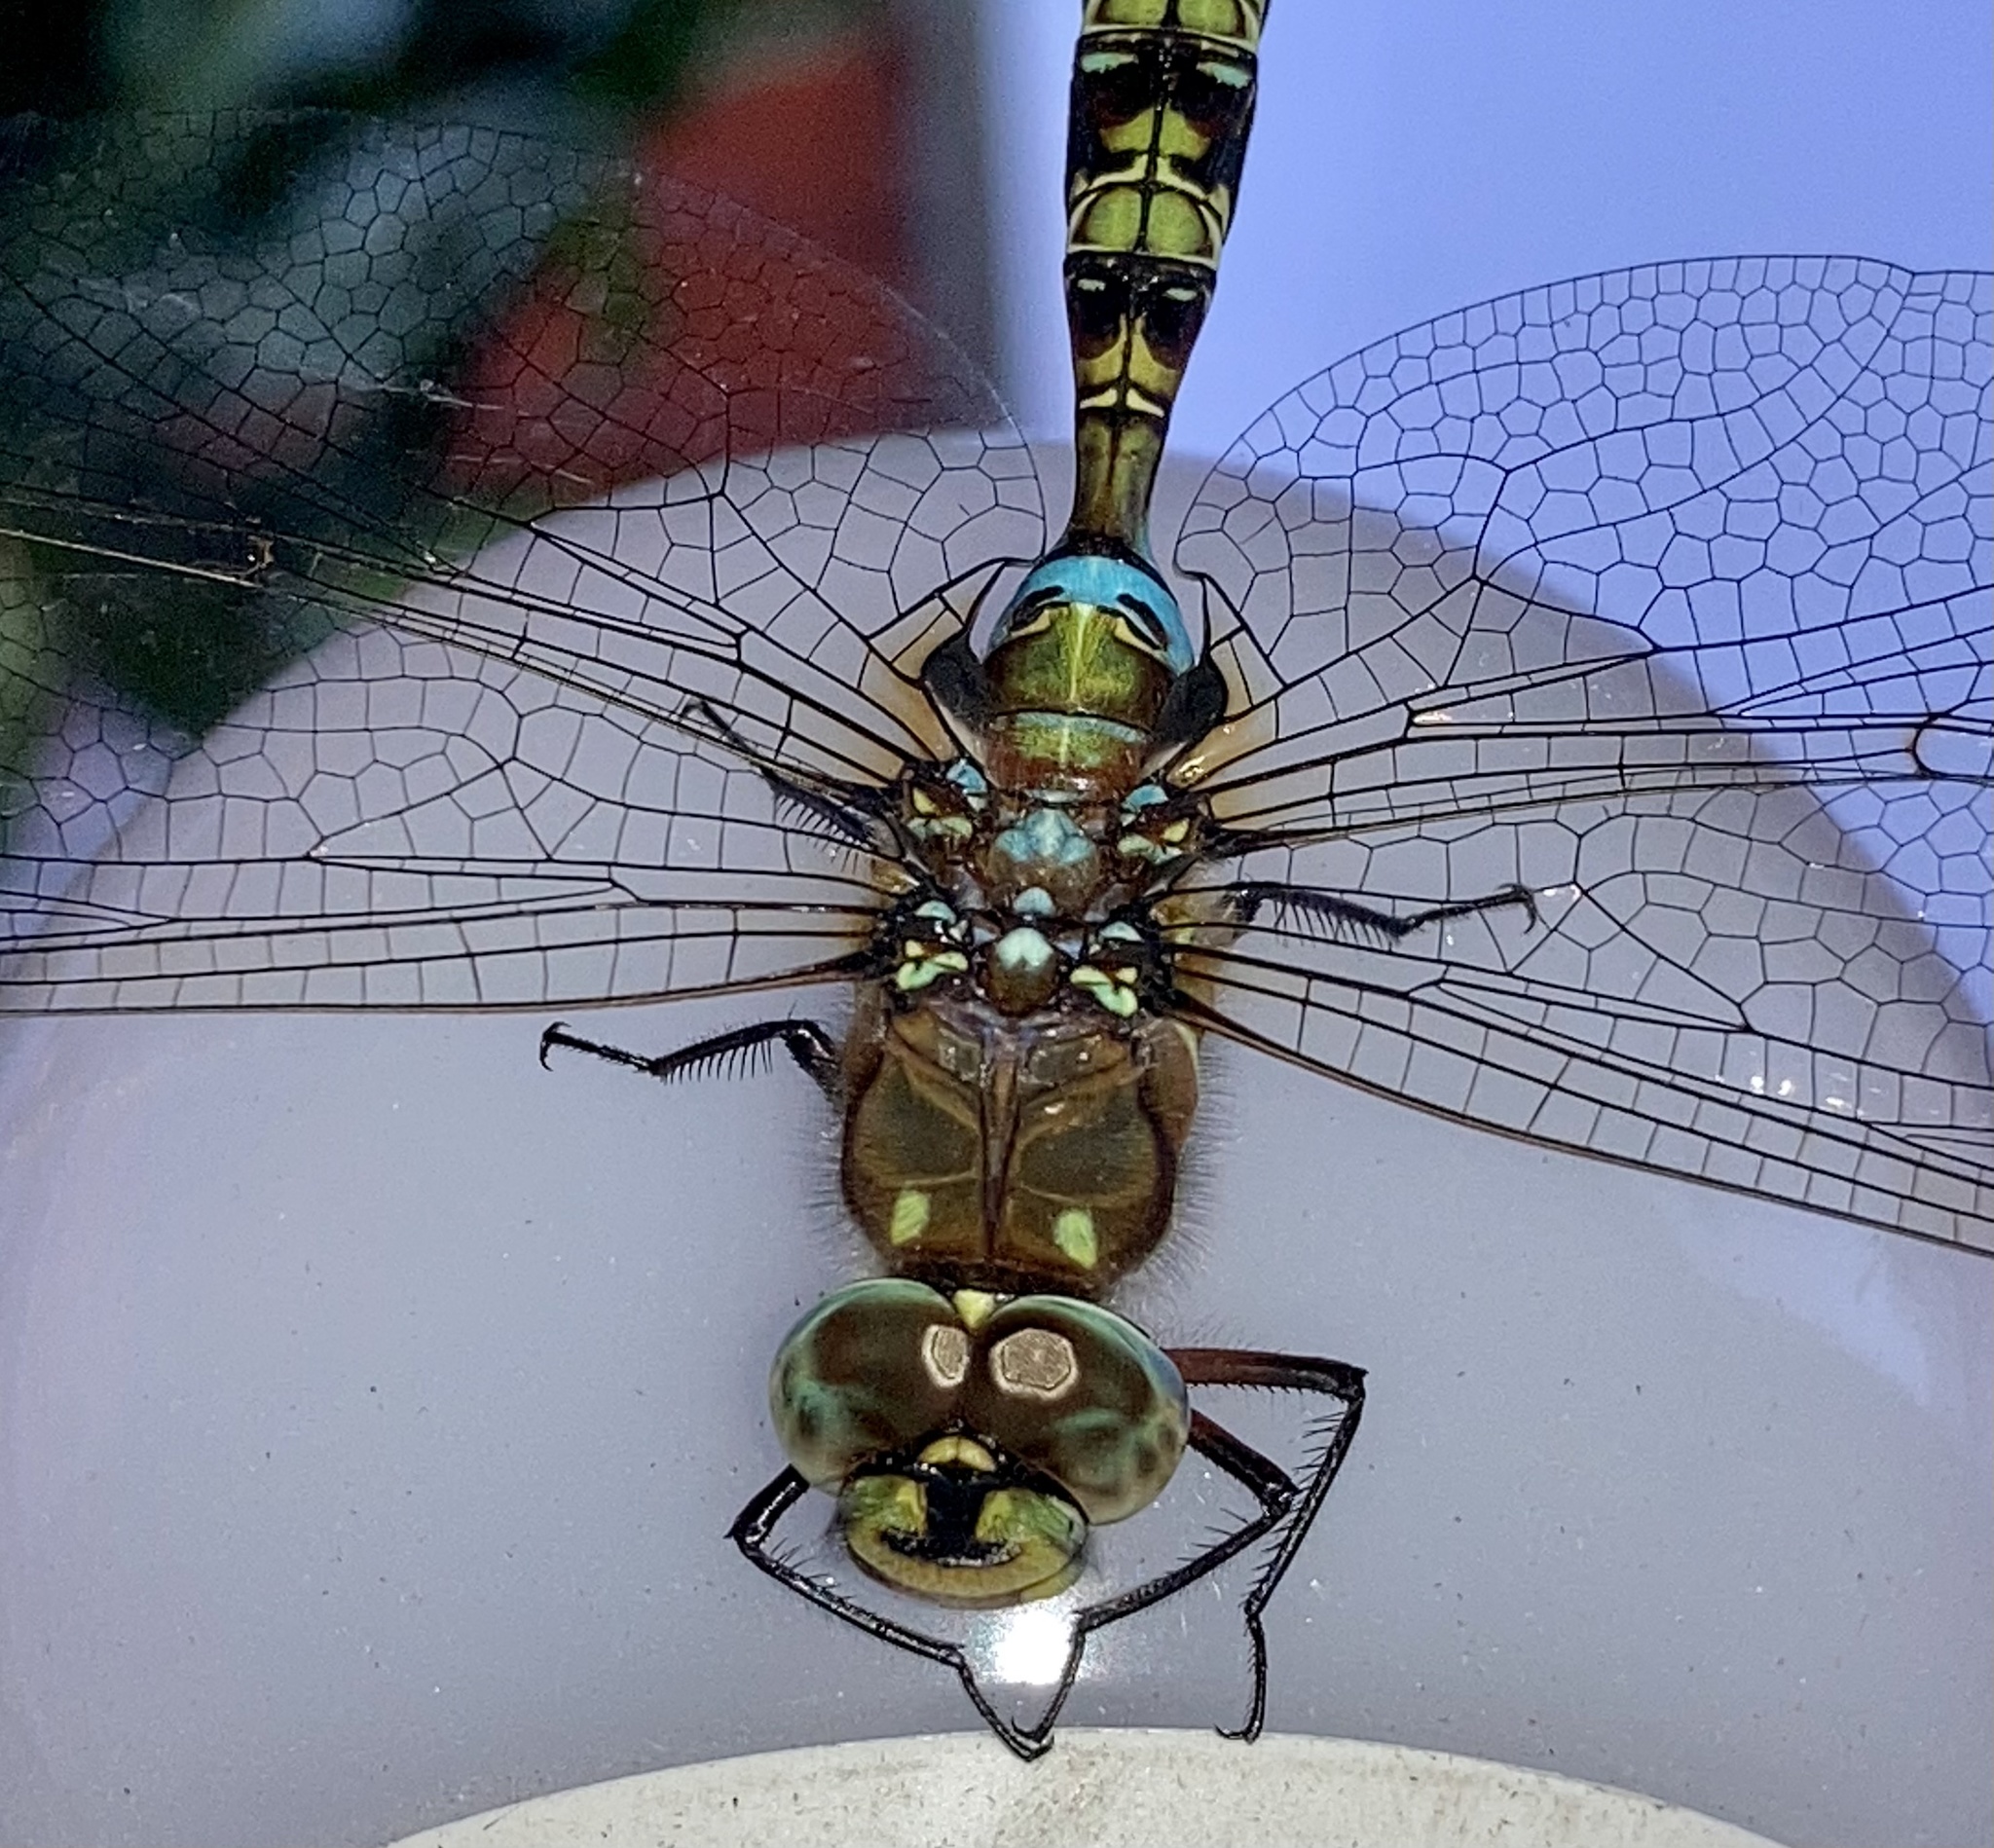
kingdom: Animalia
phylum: Arthropoda
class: Insecta
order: Odonata
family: Aeshnidae
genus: Rhionaeschna
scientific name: Rhionaeschna marchali
